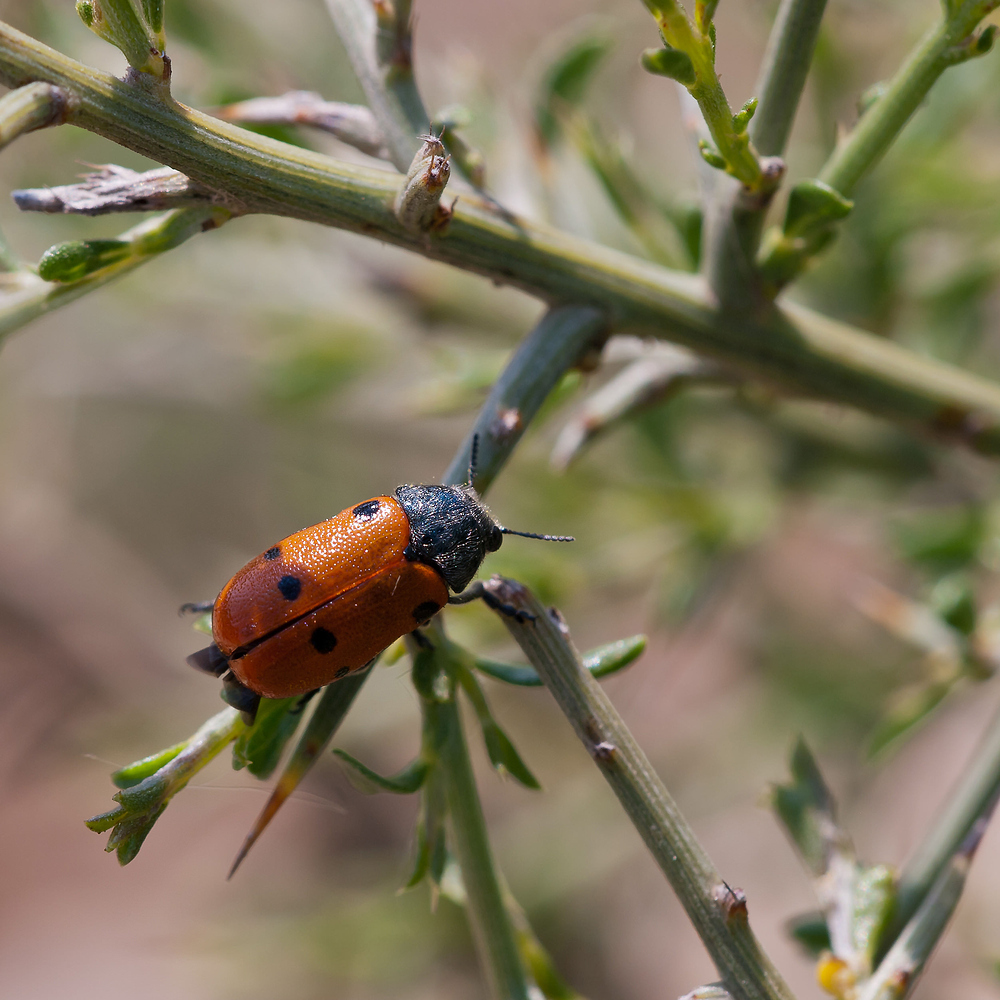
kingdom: Animalia
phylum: Arthropoda
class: Insecta
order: Coleoptera
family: Chrysomelidae
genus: Lachnaia
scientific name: Lachnaia tristigma
